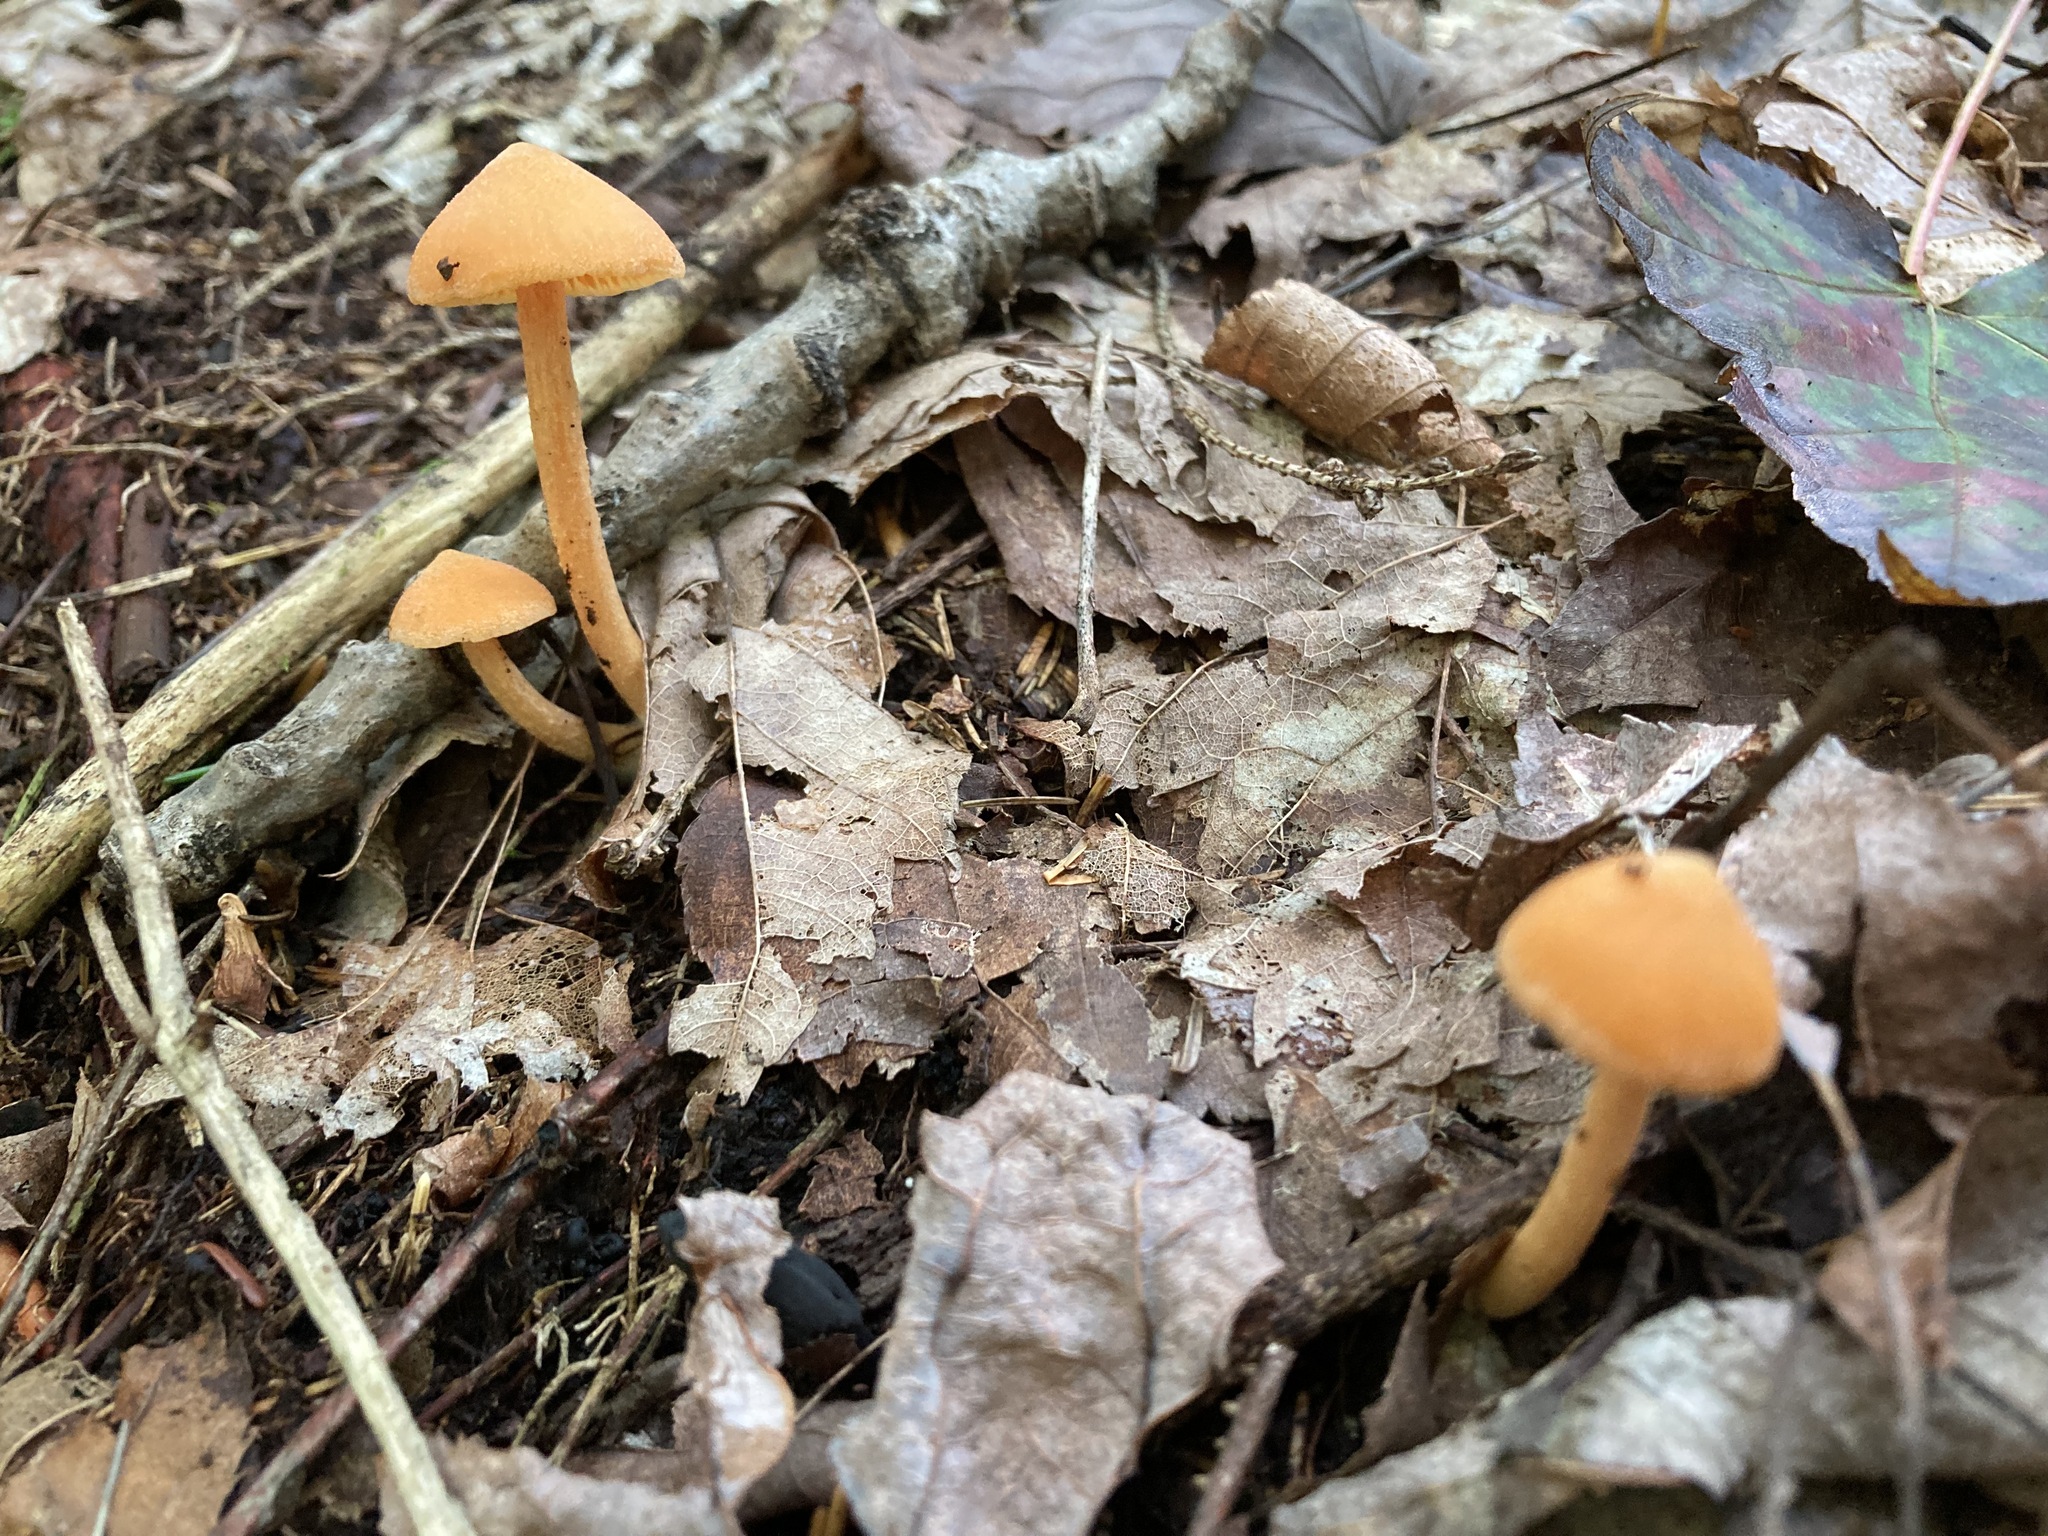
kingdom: Fungi
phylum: Basidiomycota
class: Agaricomycetes
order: Agaricales
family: Entolomataceae
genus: Entoloma
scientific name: Entoloma quadratum
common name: Salmon pinkgill
